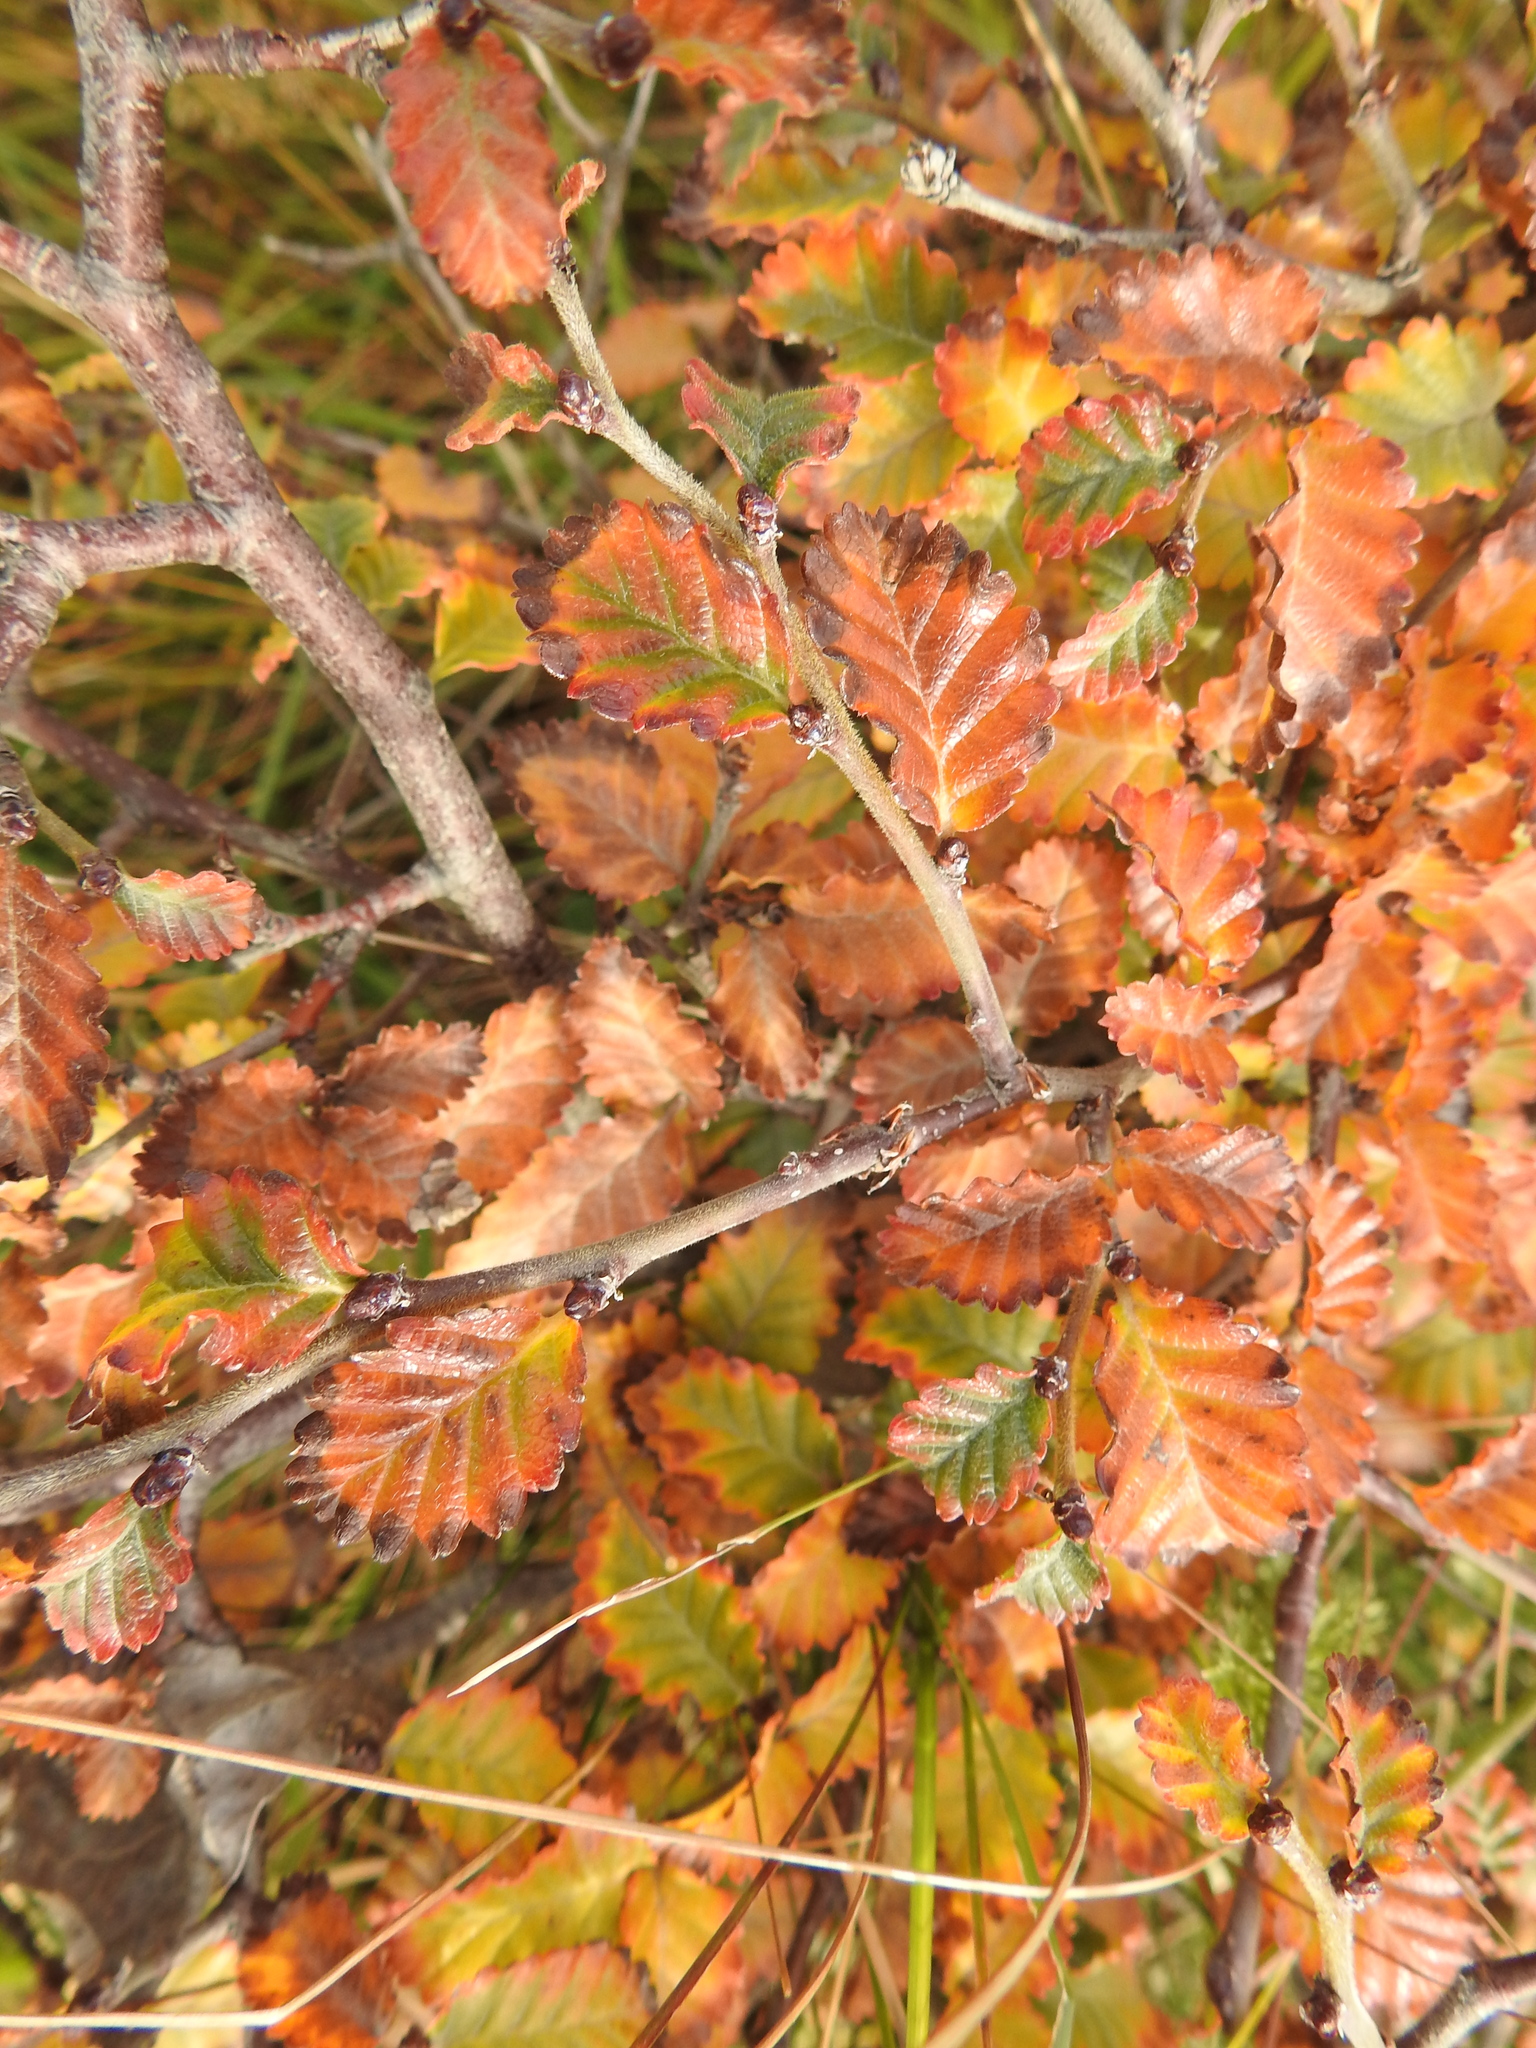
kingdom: Plantae
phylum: Tracheophyta
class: Magnoliopsida
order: Fagales
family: Nothofagaceae
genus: Nothofagus
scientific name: Nothofagus pumilio
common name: Lenga beech
